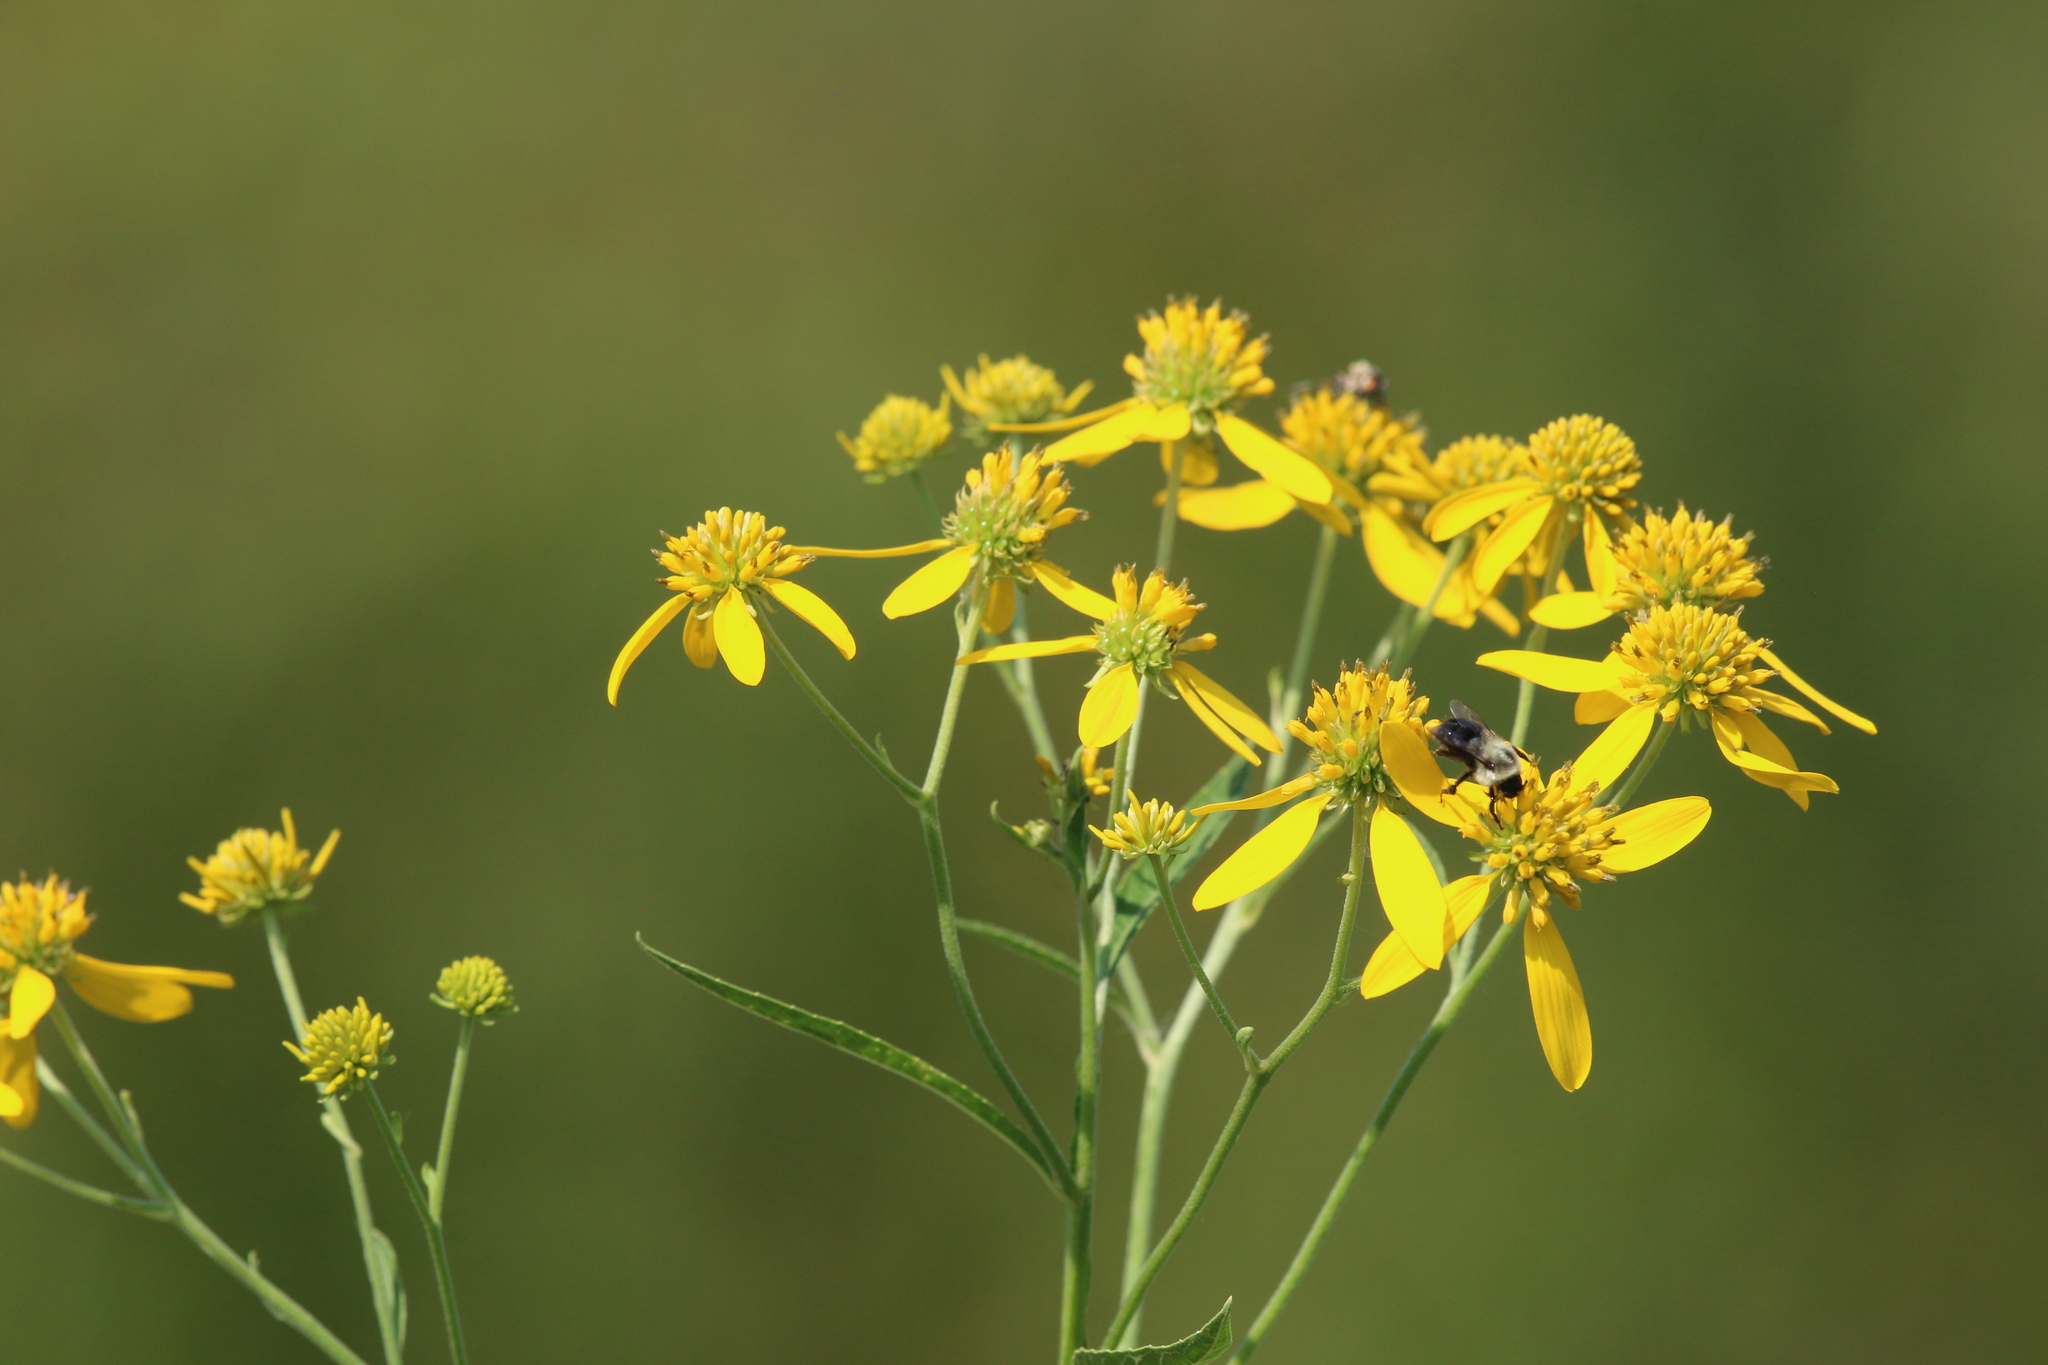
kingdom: Plantae
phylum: Tracheophyta
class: Magnoliopsida
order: Asterales
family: Asteraceae
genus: Verbesina
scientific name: Verbesina alternifolia
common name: Wingstem
